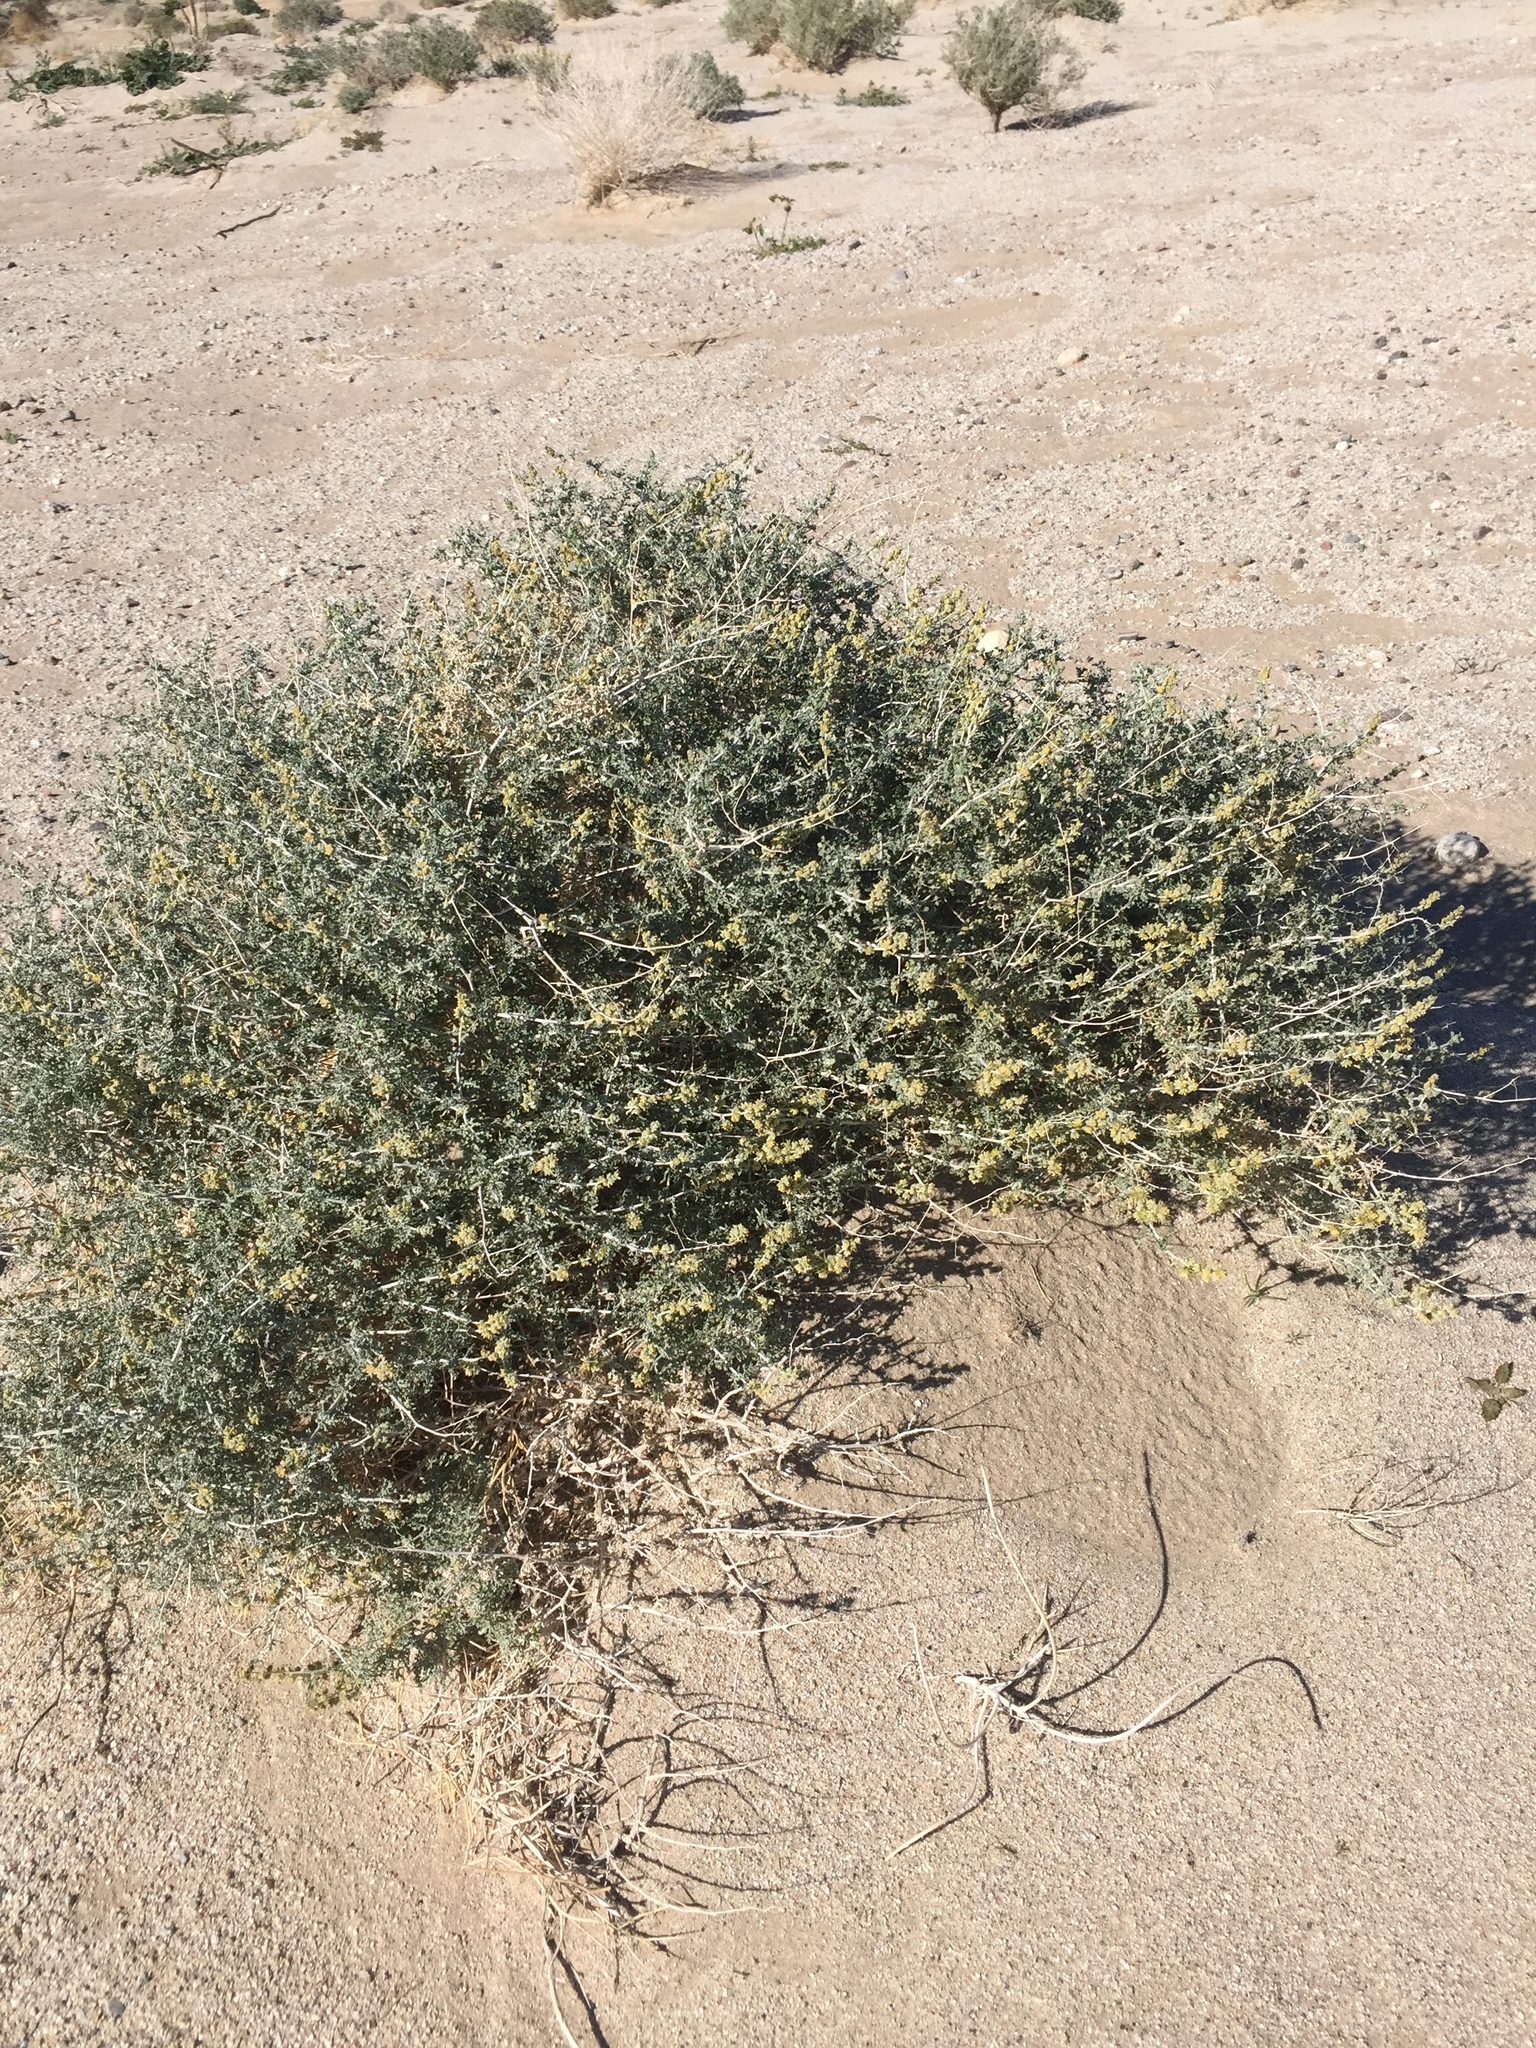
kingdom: Plantae
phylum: Tracheophyta
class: Magnoliopsida
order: Asterales
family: Asteraceae
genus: Ambrosia
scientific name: Ambrosia dumosa
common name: Bur-sage
